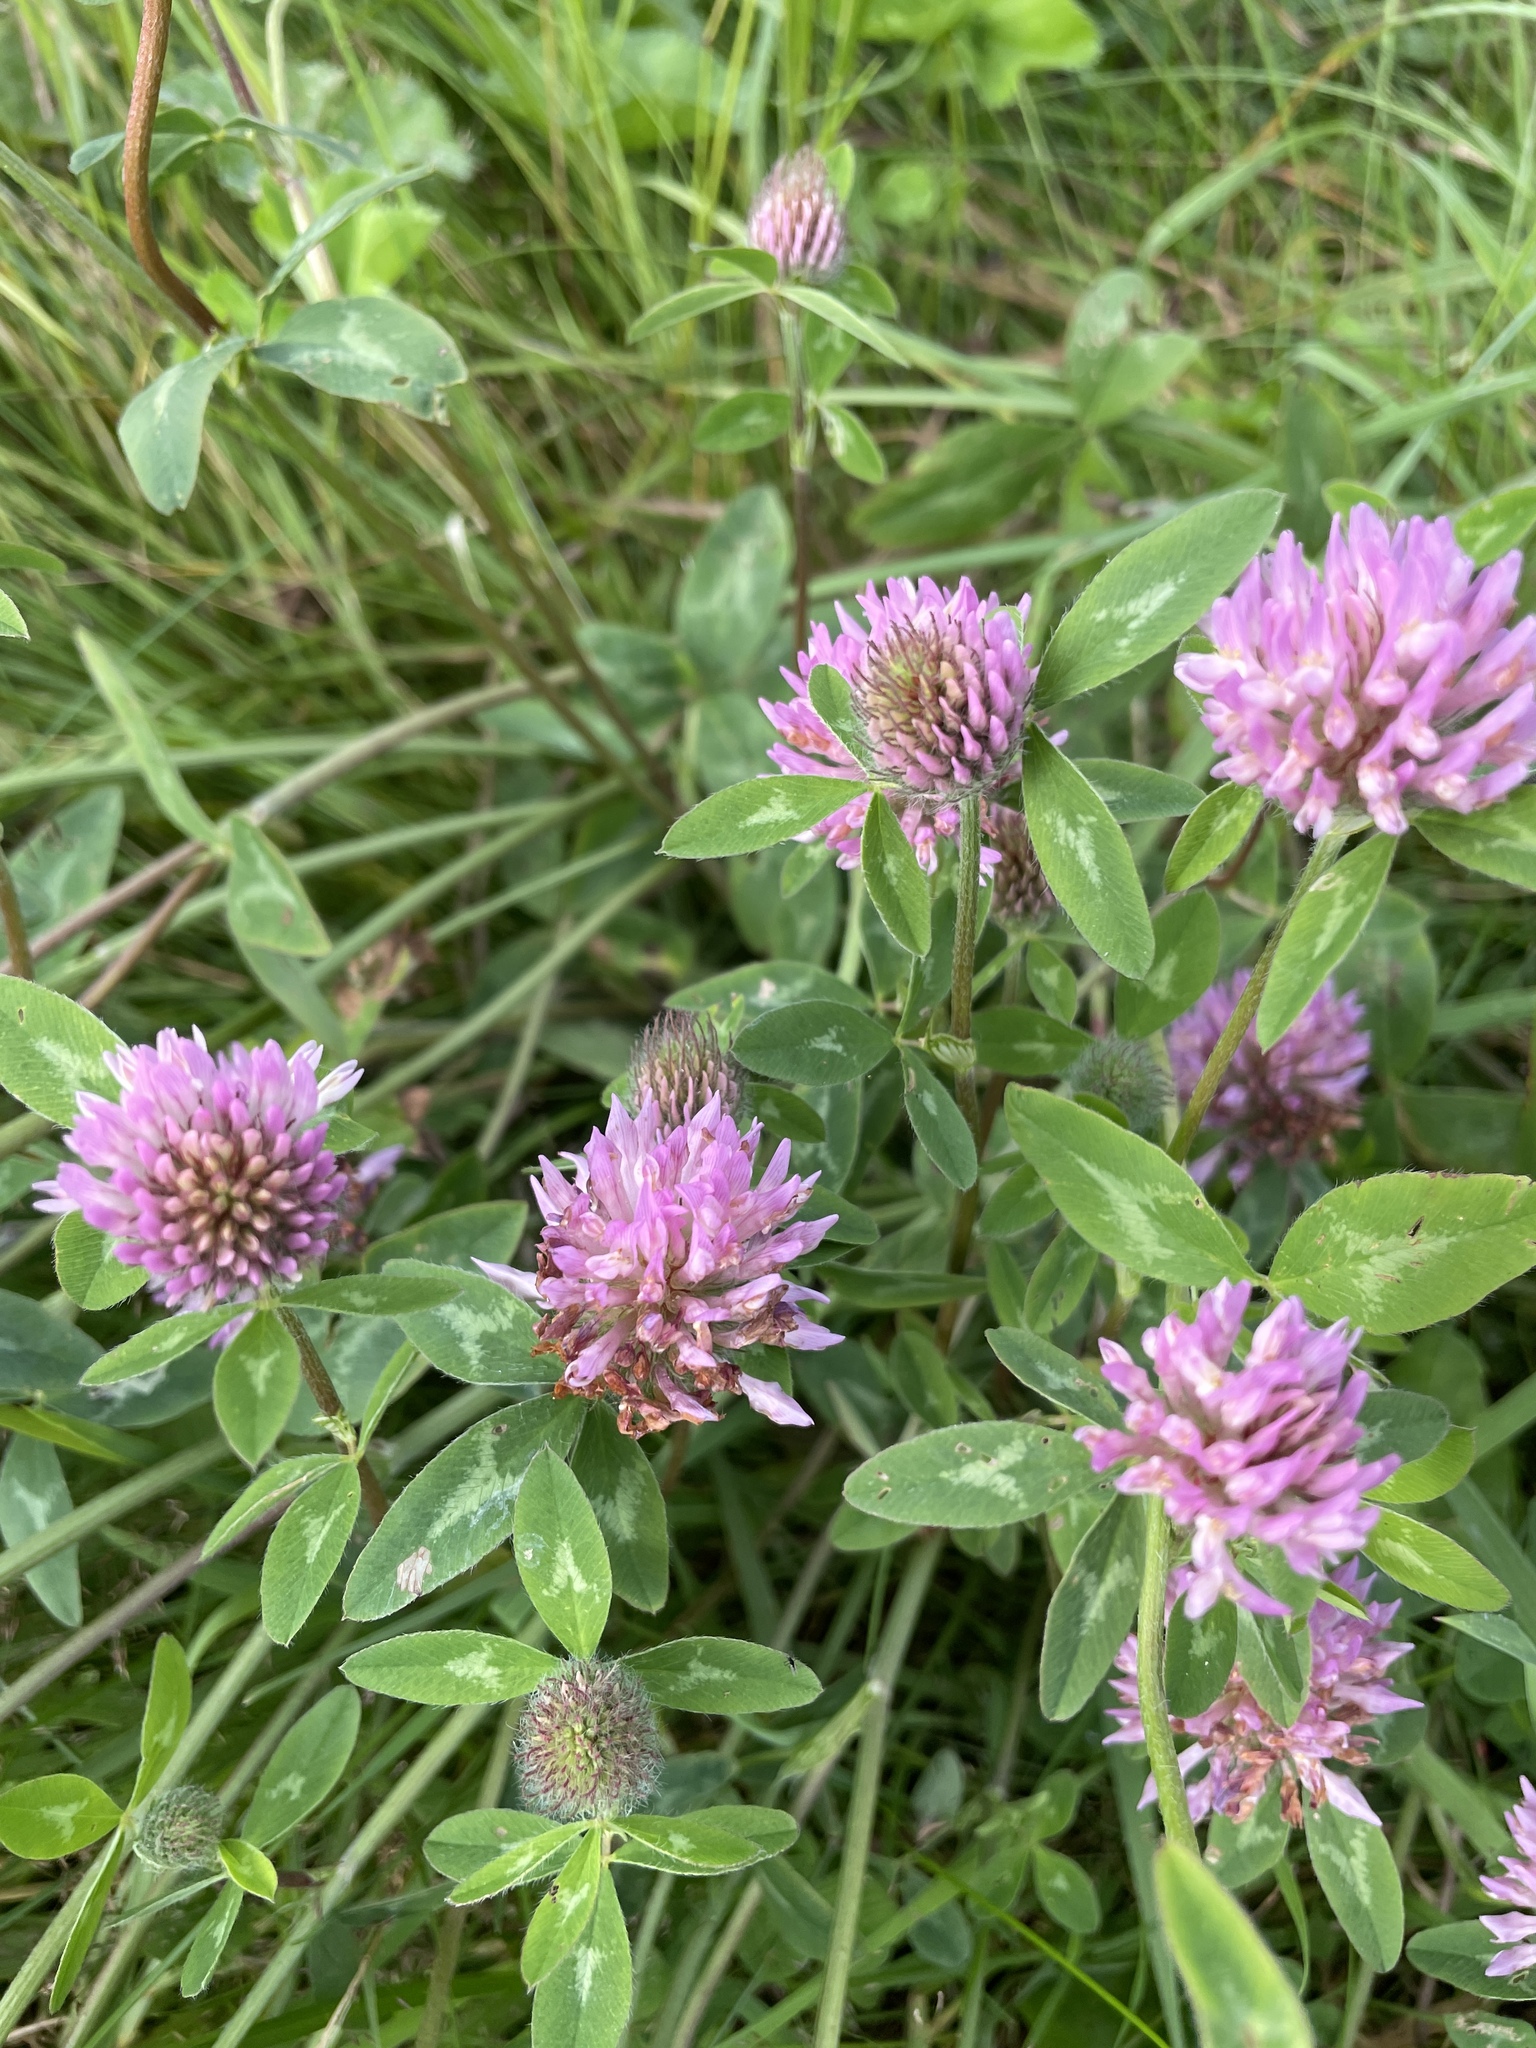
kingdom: Plantae
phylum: Tracheophyta
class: Magnoliopsida
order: Fabales
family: Fabaceae
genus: Trifolium
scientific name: Trifolium pratense
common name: Red clover
